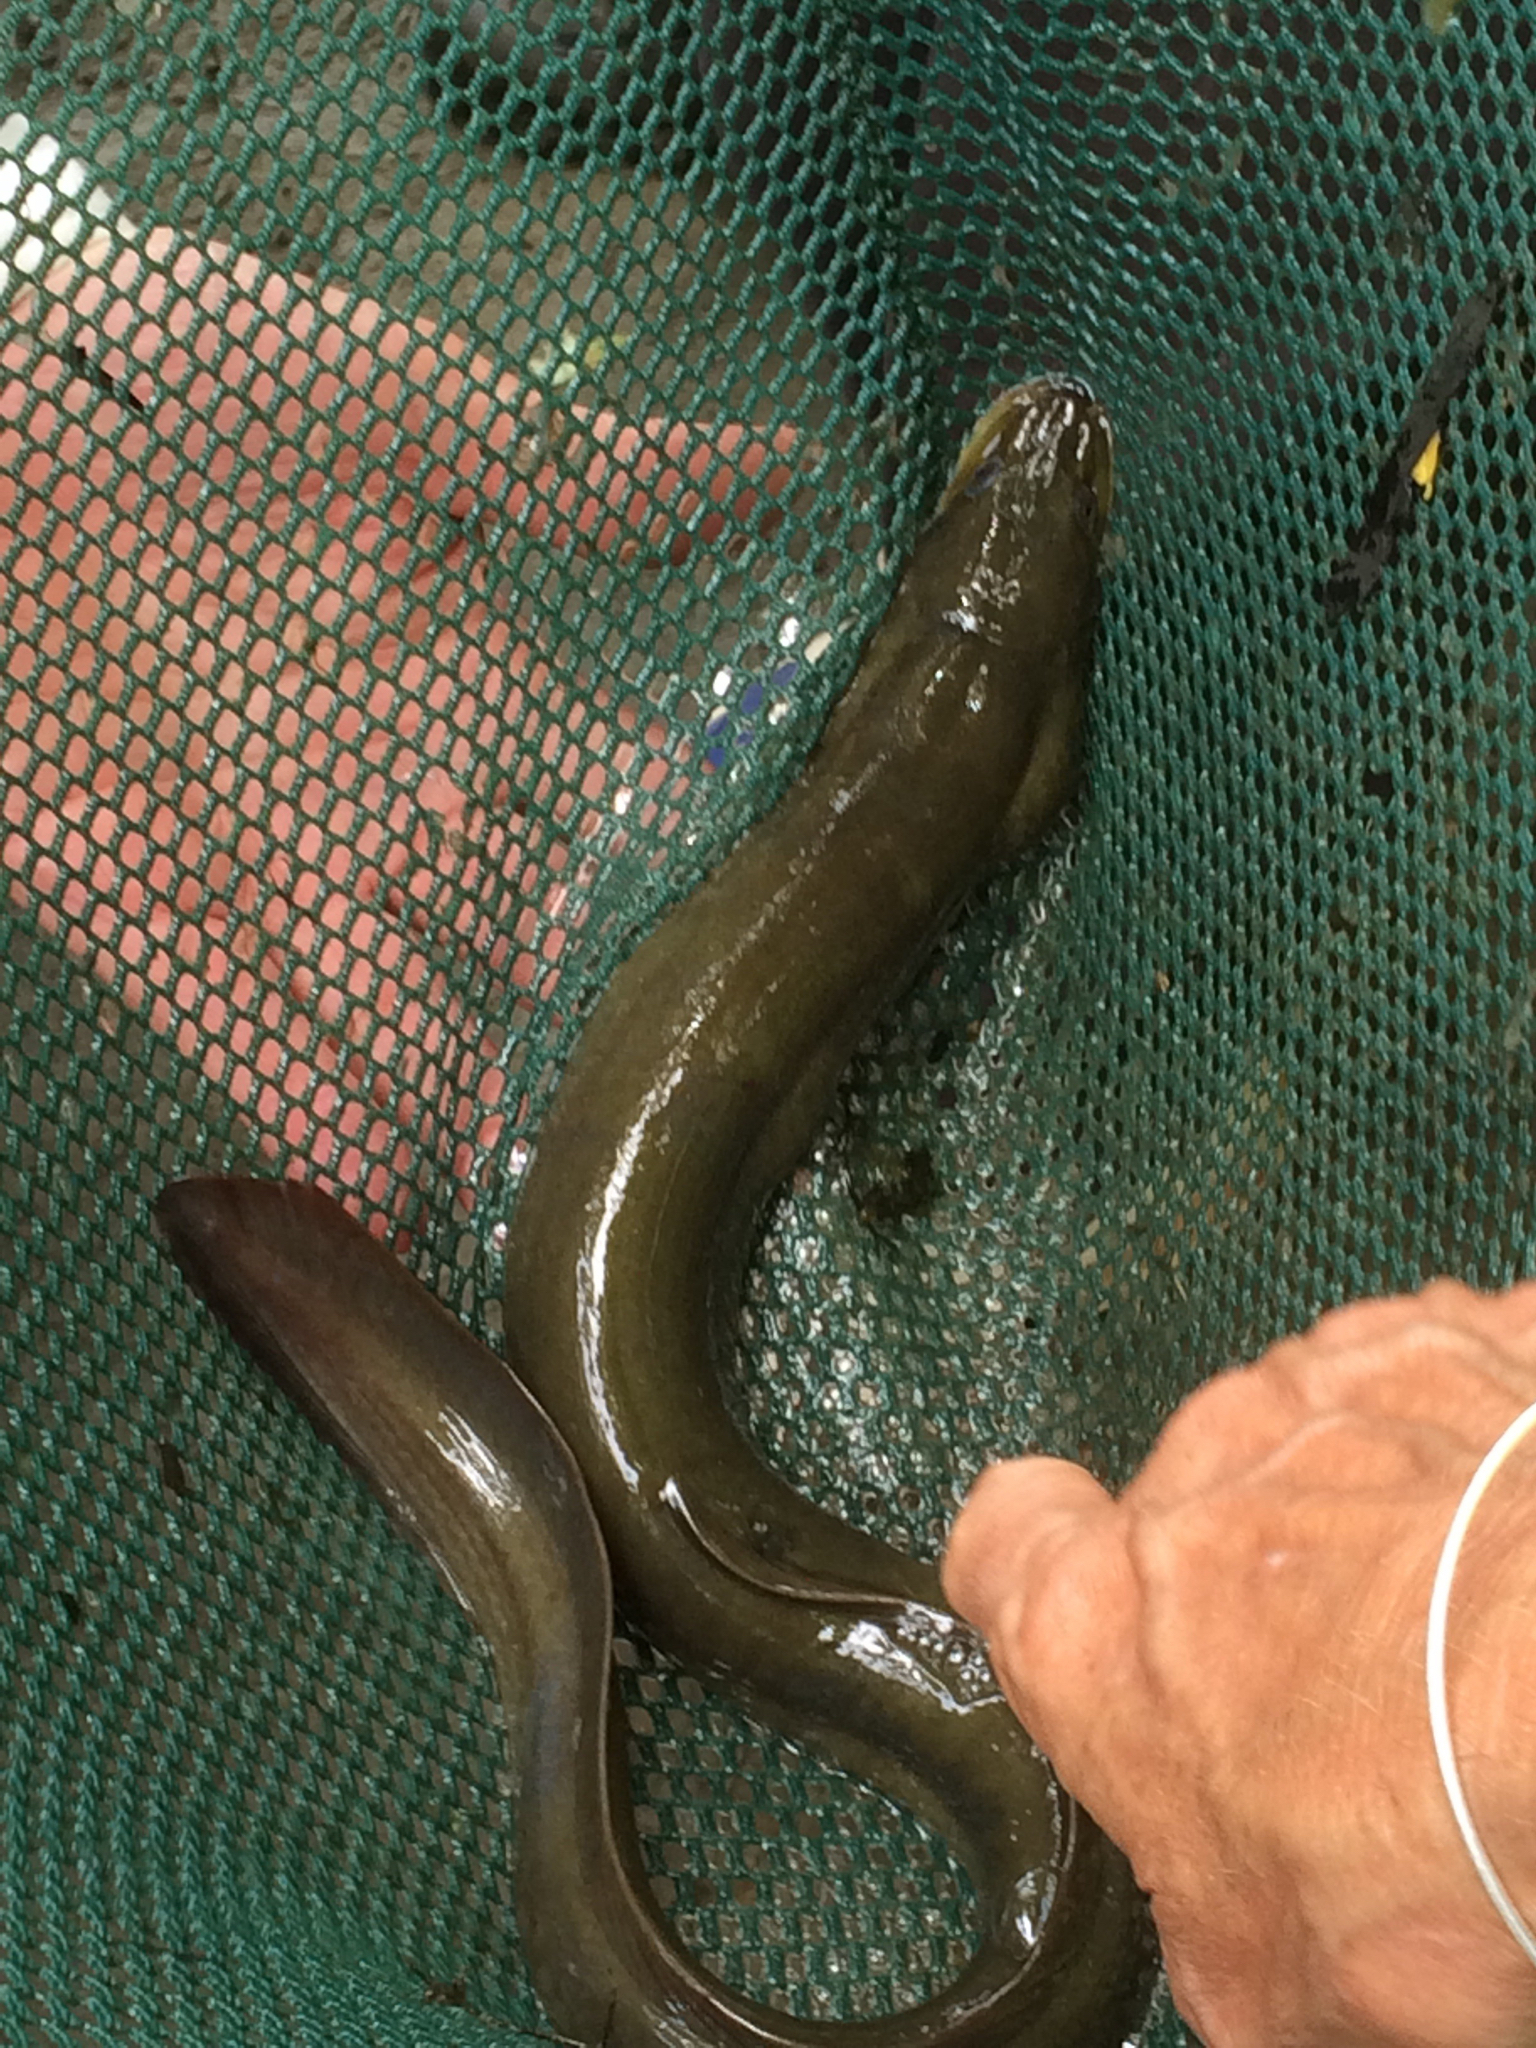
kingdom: Animalia
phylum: Chordata
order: Anguilliformes
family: Anguillidae
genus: Anguilla
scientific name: Anguilla rostrata
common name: American eel
